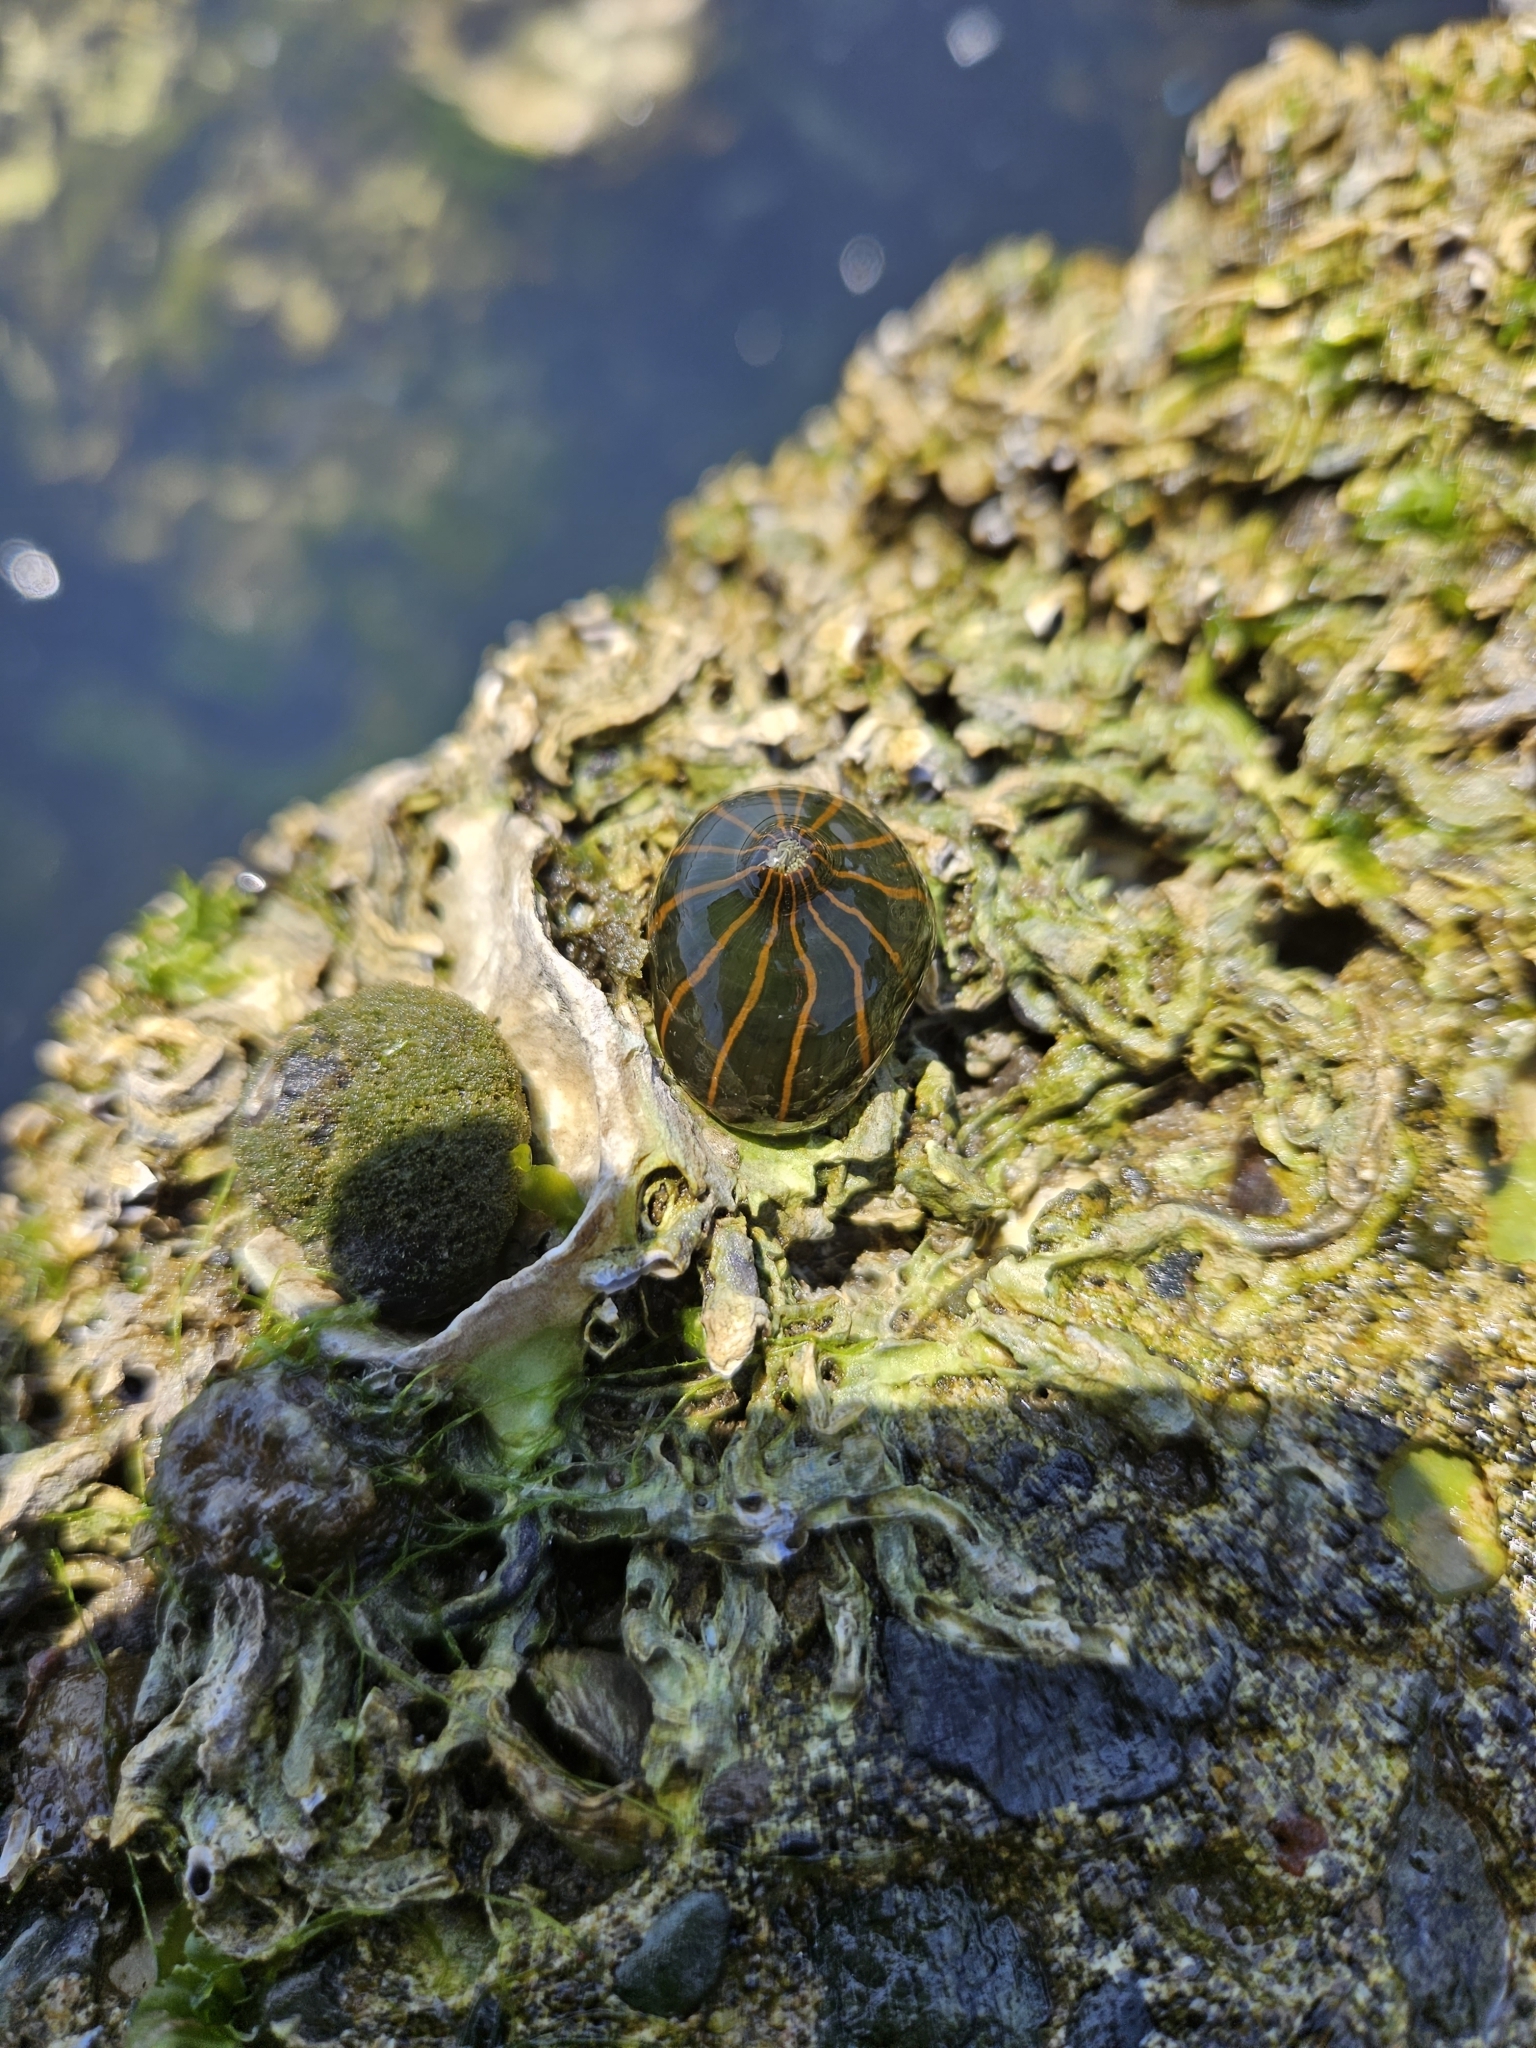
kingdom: Animalia
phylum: Cnidaria
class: Anthozoa
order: Actiniaria
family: Diadumenidae
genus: Diadumene
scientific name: Diadumene lineata
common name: Orange-striped anemone
